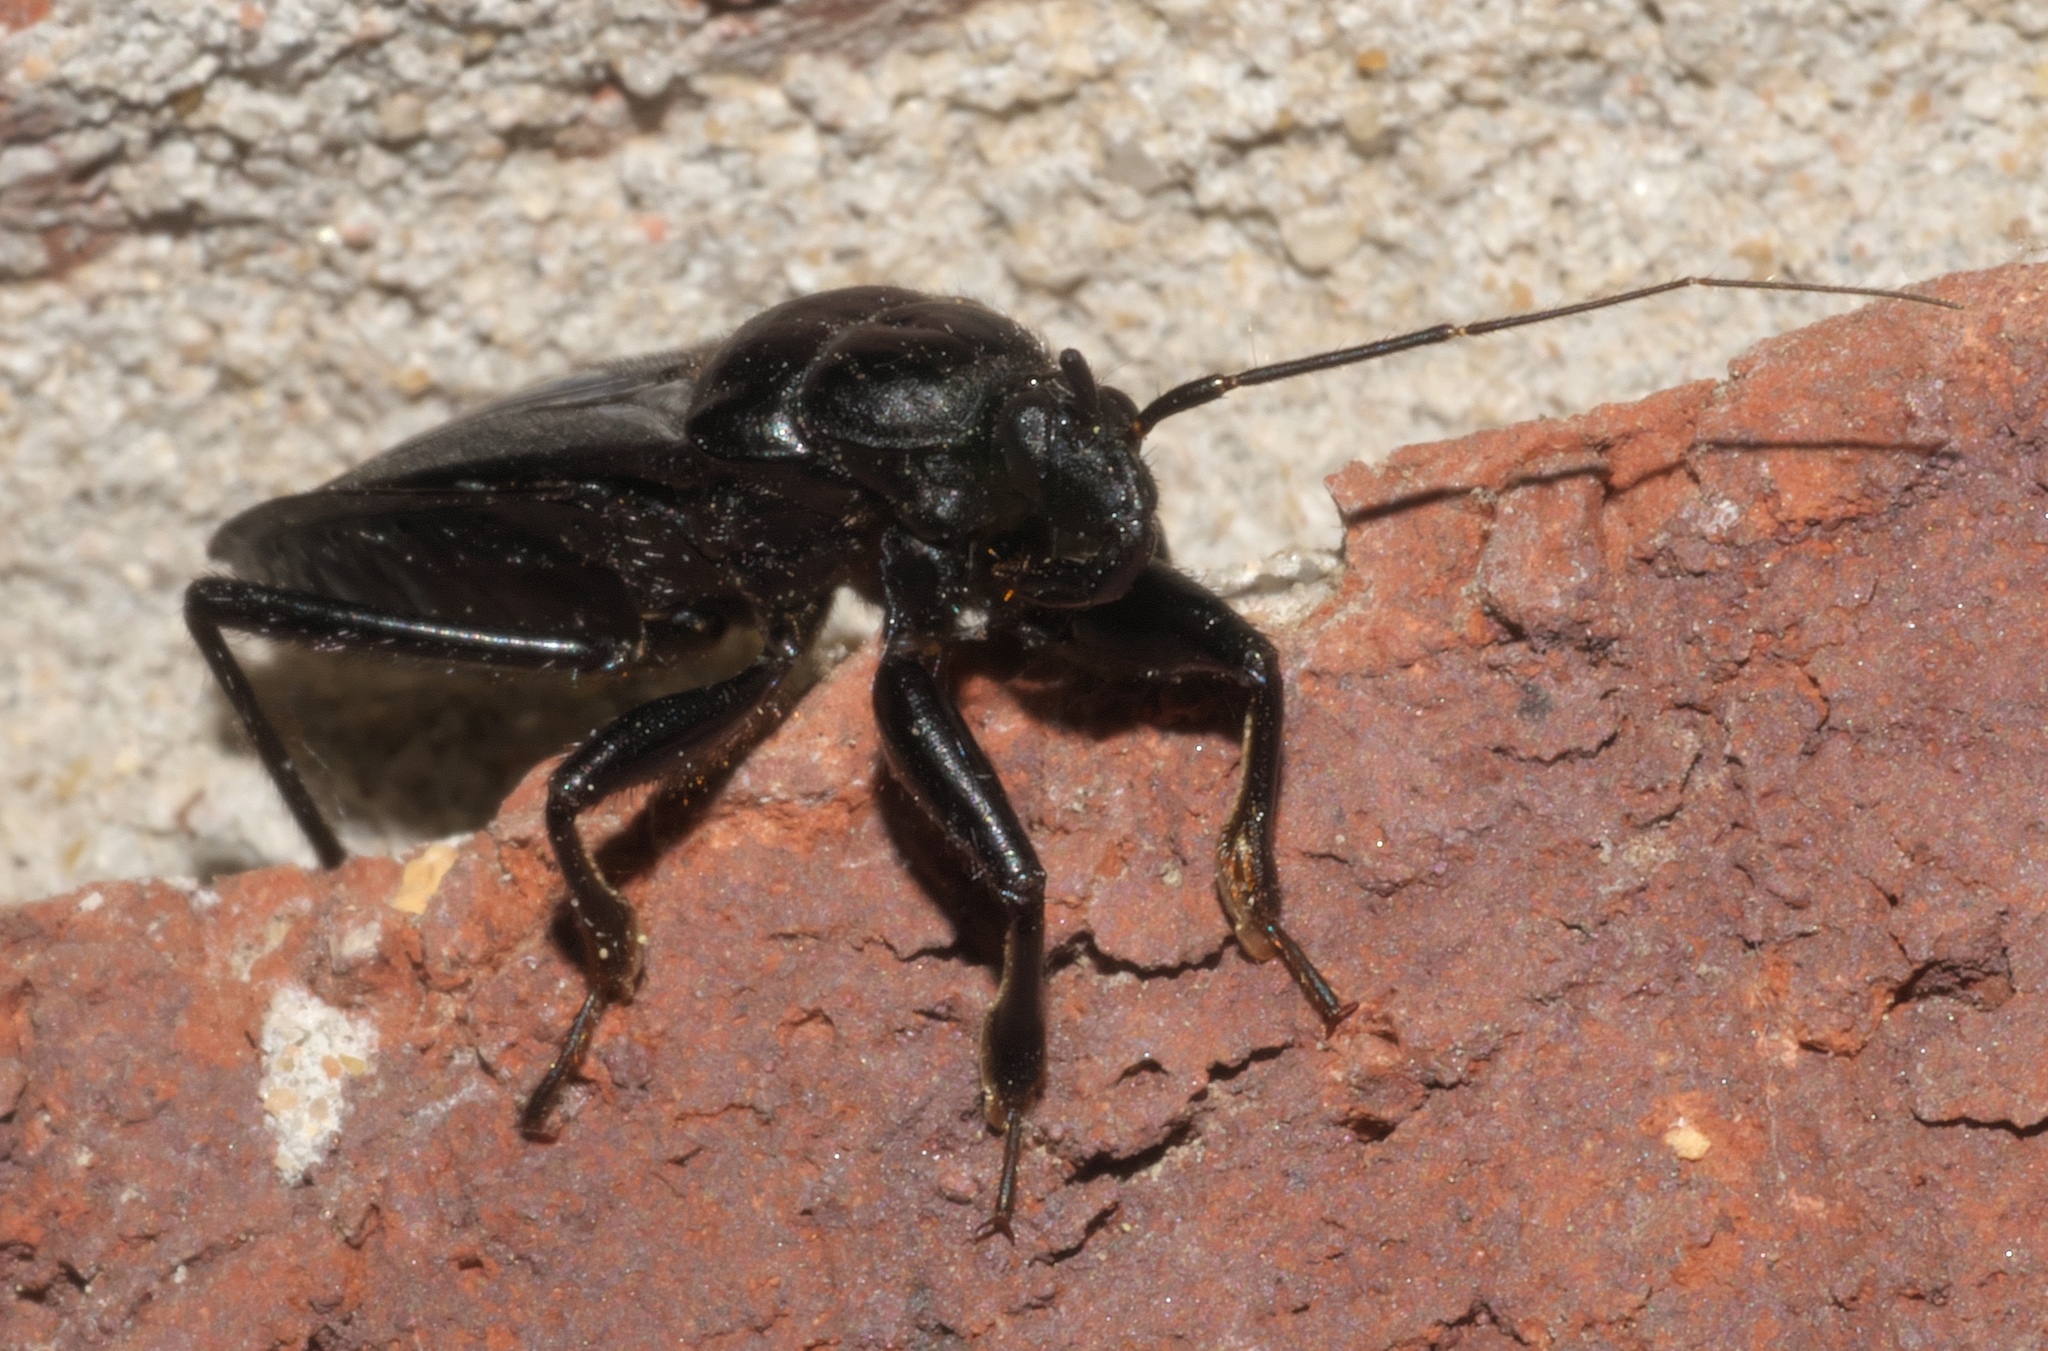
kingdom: Animalia
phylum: Arthropoda
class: Insecta
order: Hemiptera
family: Reduviidae
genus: Melanolestes
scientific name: Melanolestes picipes
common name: Assassin bug
